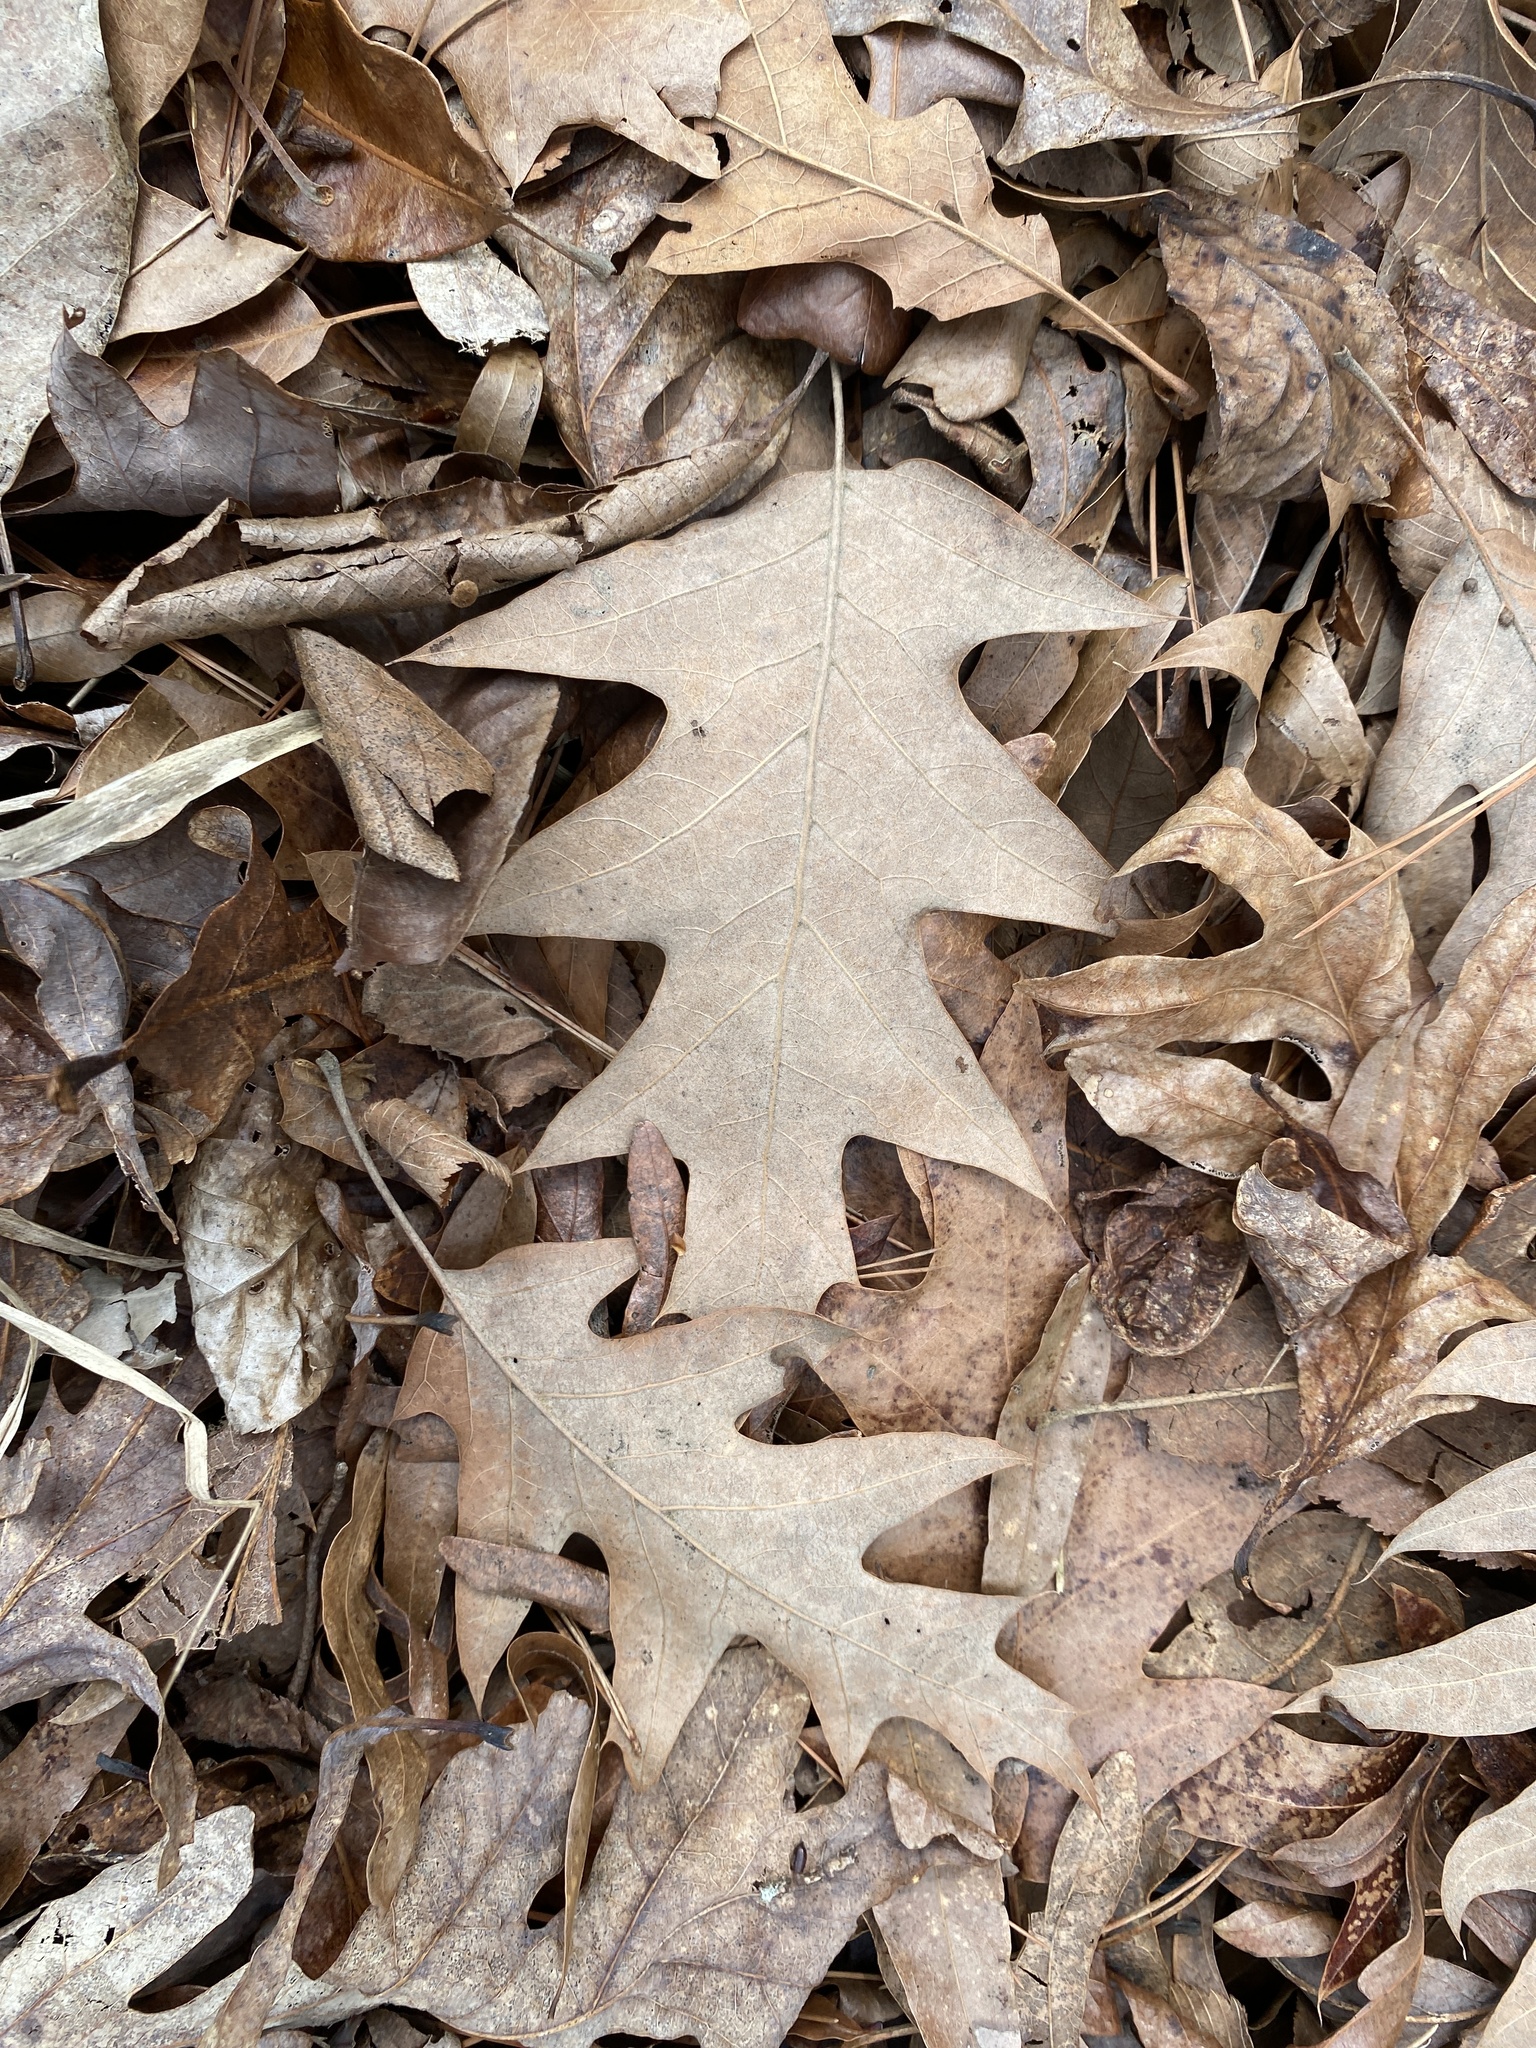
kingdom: Plantae
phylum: Tracheophyta
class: Magnoliopsida
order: Fagales
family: Fagaceae
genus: Quercus
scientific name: Quercus pagoda
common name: Cherrybark oak
